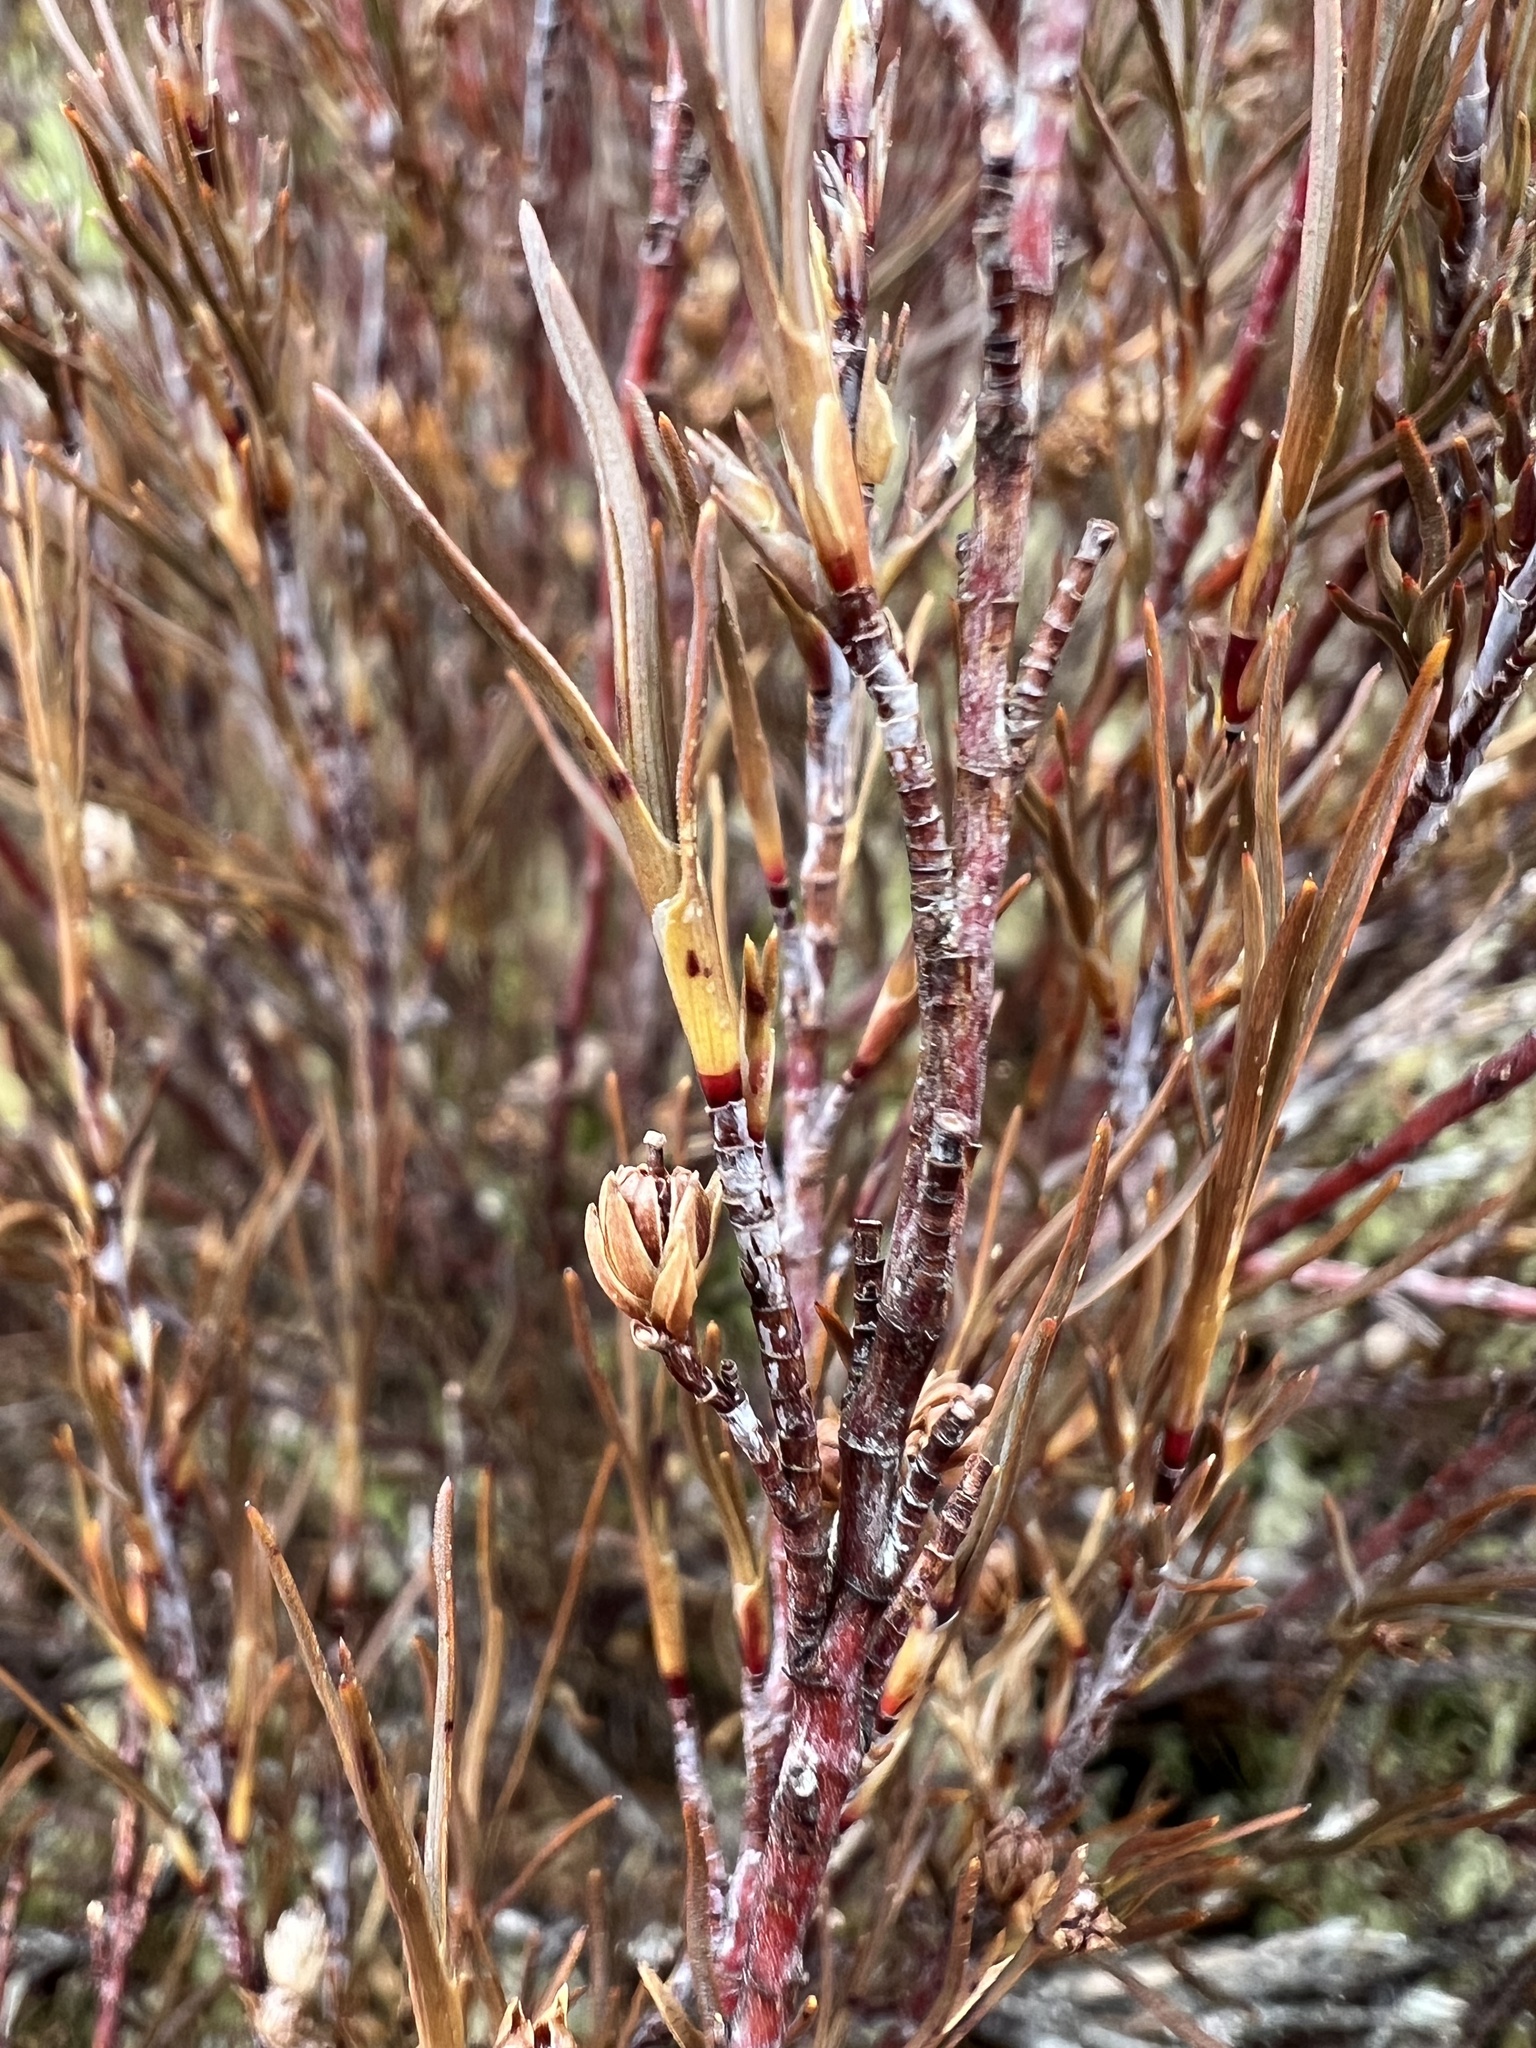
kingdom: Plantae
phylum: Tracheophyta
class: Magnoliopsida
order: Ericales
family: Ericaceae
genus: Dracophyllum
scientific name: Dracophyllum subulatum
